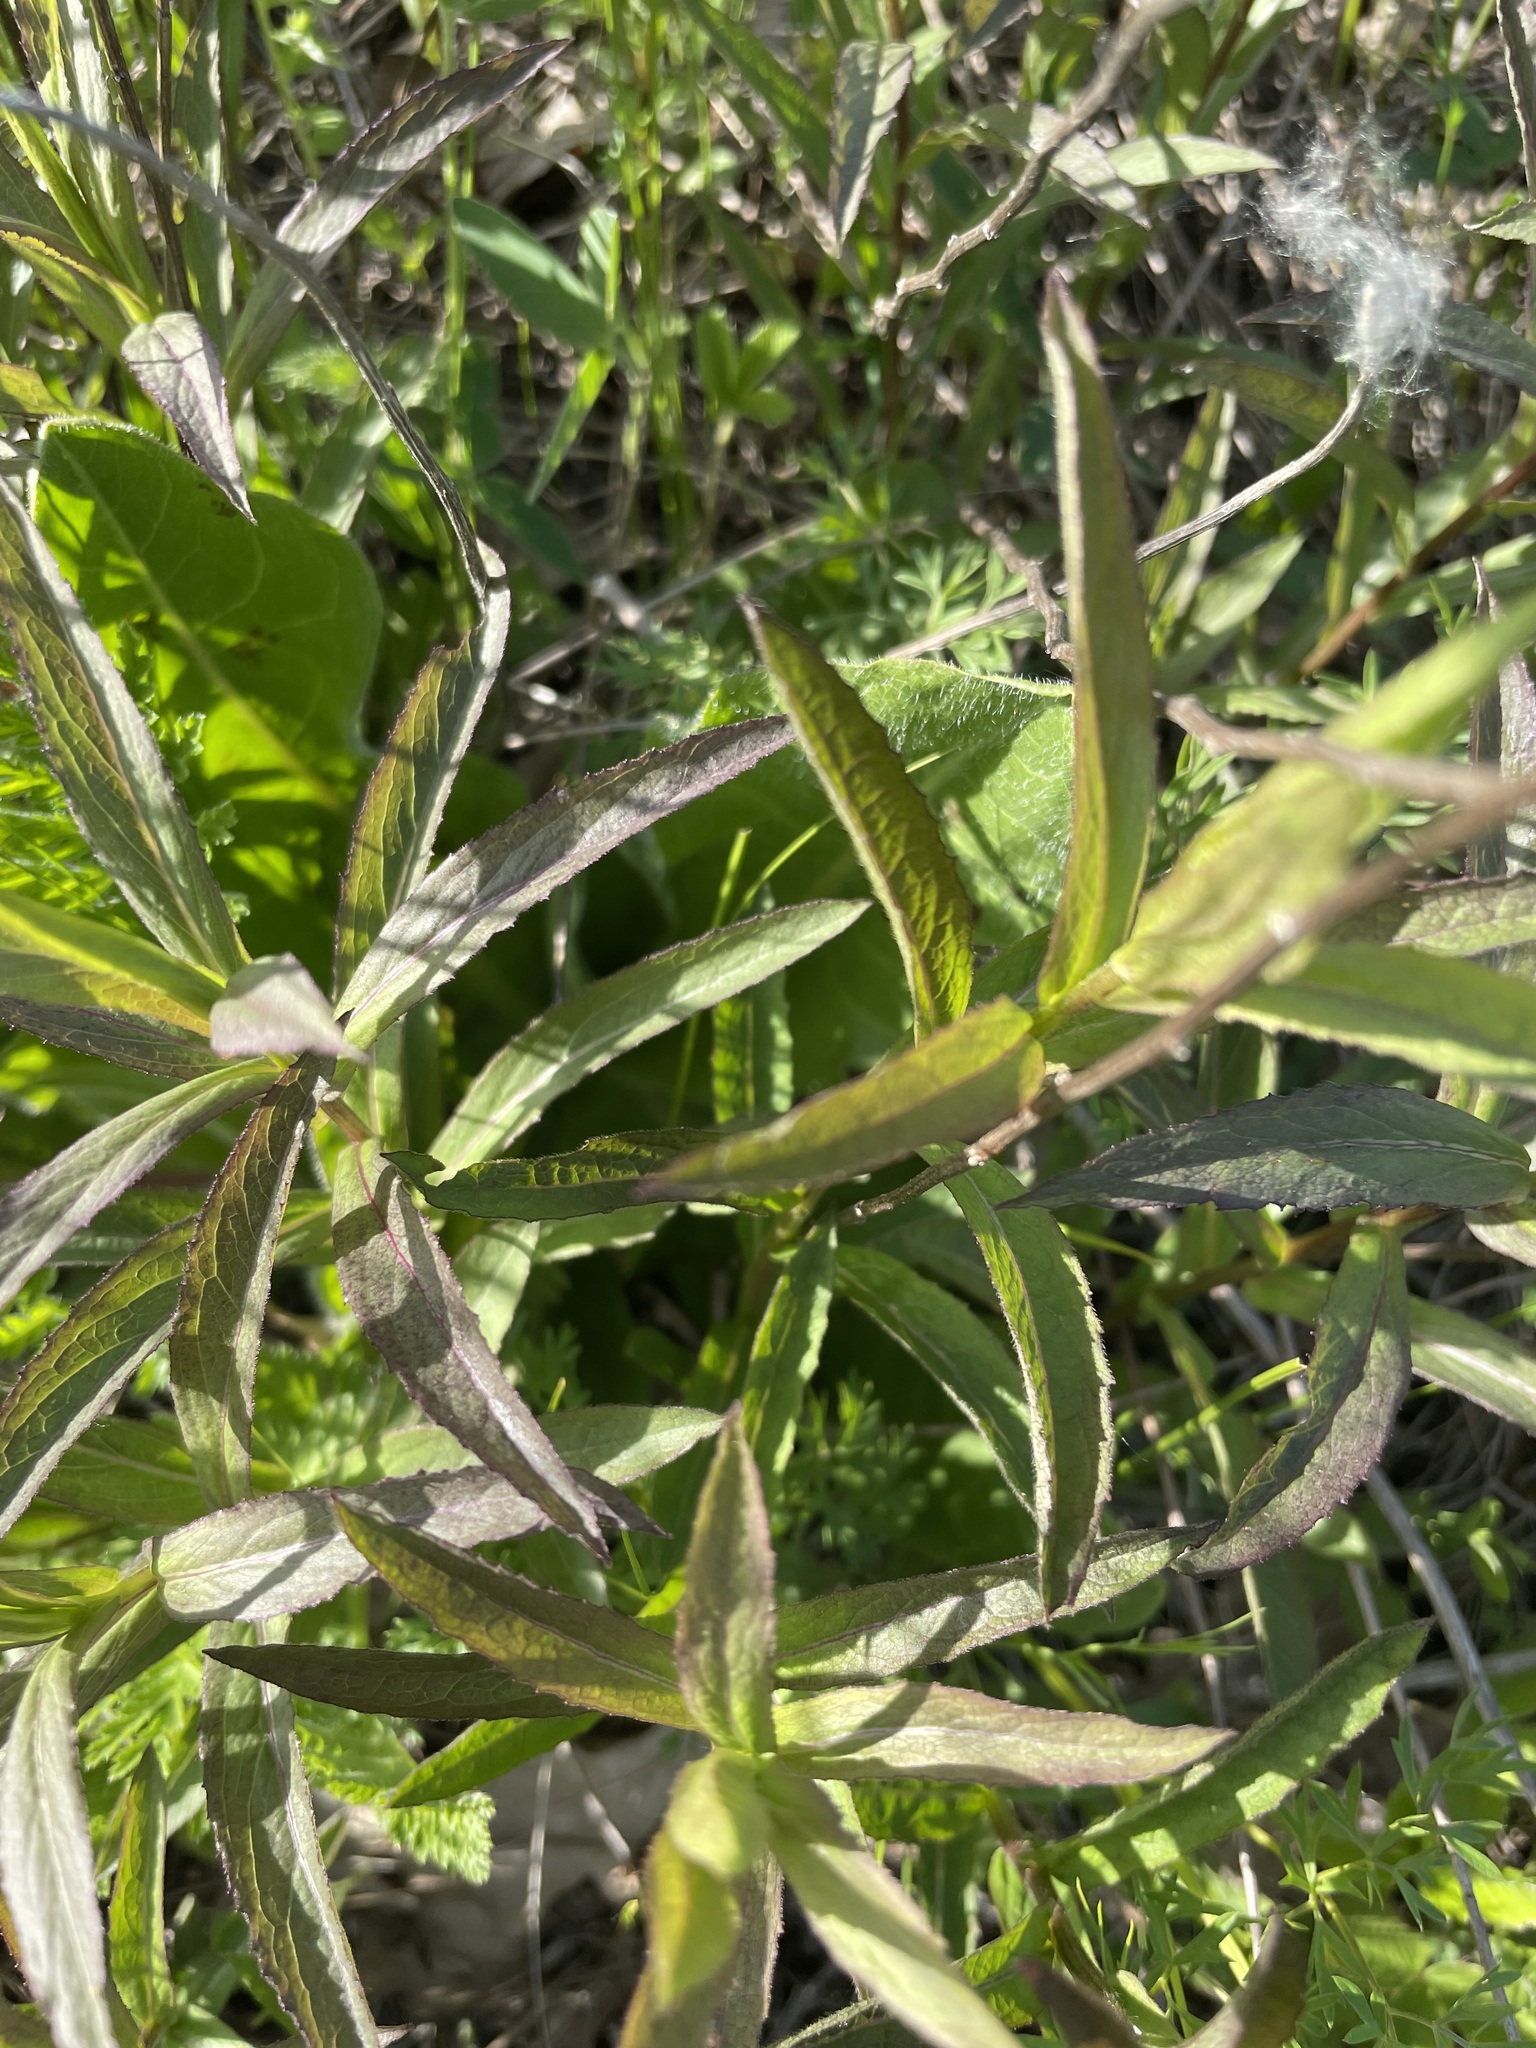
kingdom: Plantae
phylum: Tracheophyta
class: Magnoliopsida
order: Asterales
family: Asteraceae
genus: Pentanema
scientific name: Pentanema salicinum
